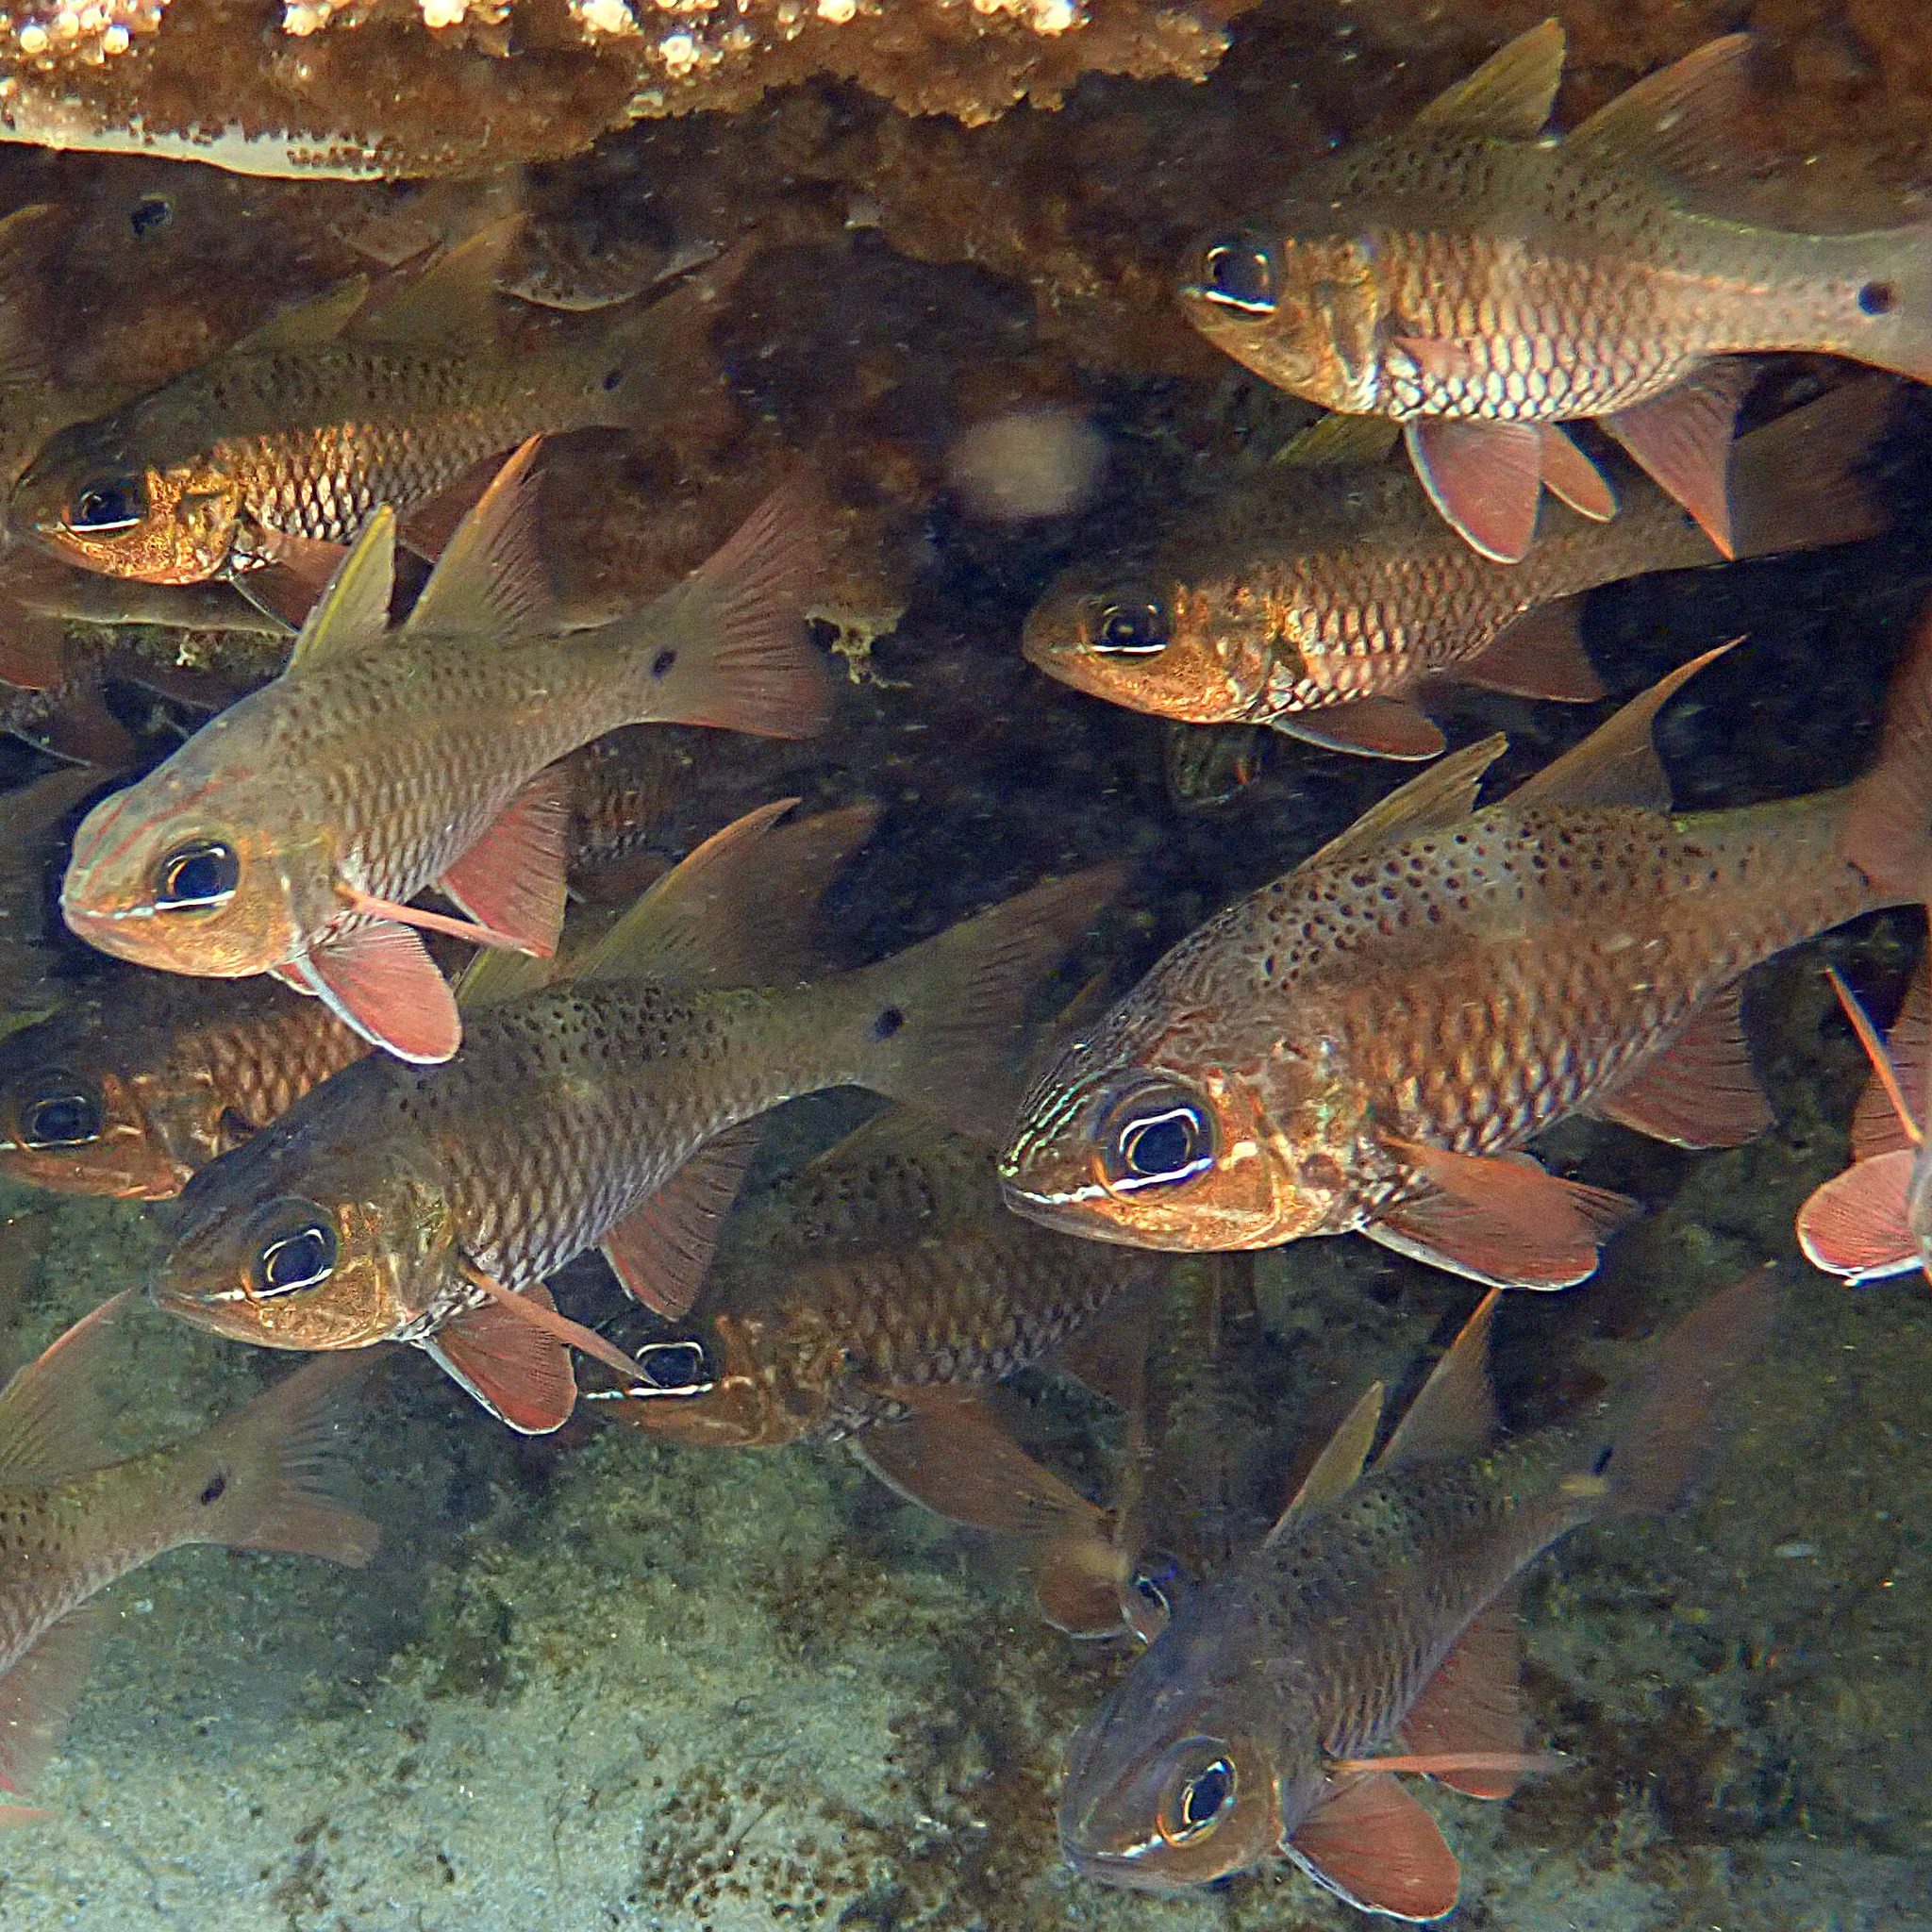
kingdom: Animalia
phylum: Chordata
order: Perciformes
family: Apogonidae
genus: Ostorhinchus
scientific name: Ostorhinchus norfolcensis
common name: Norfolk cardinalfish
